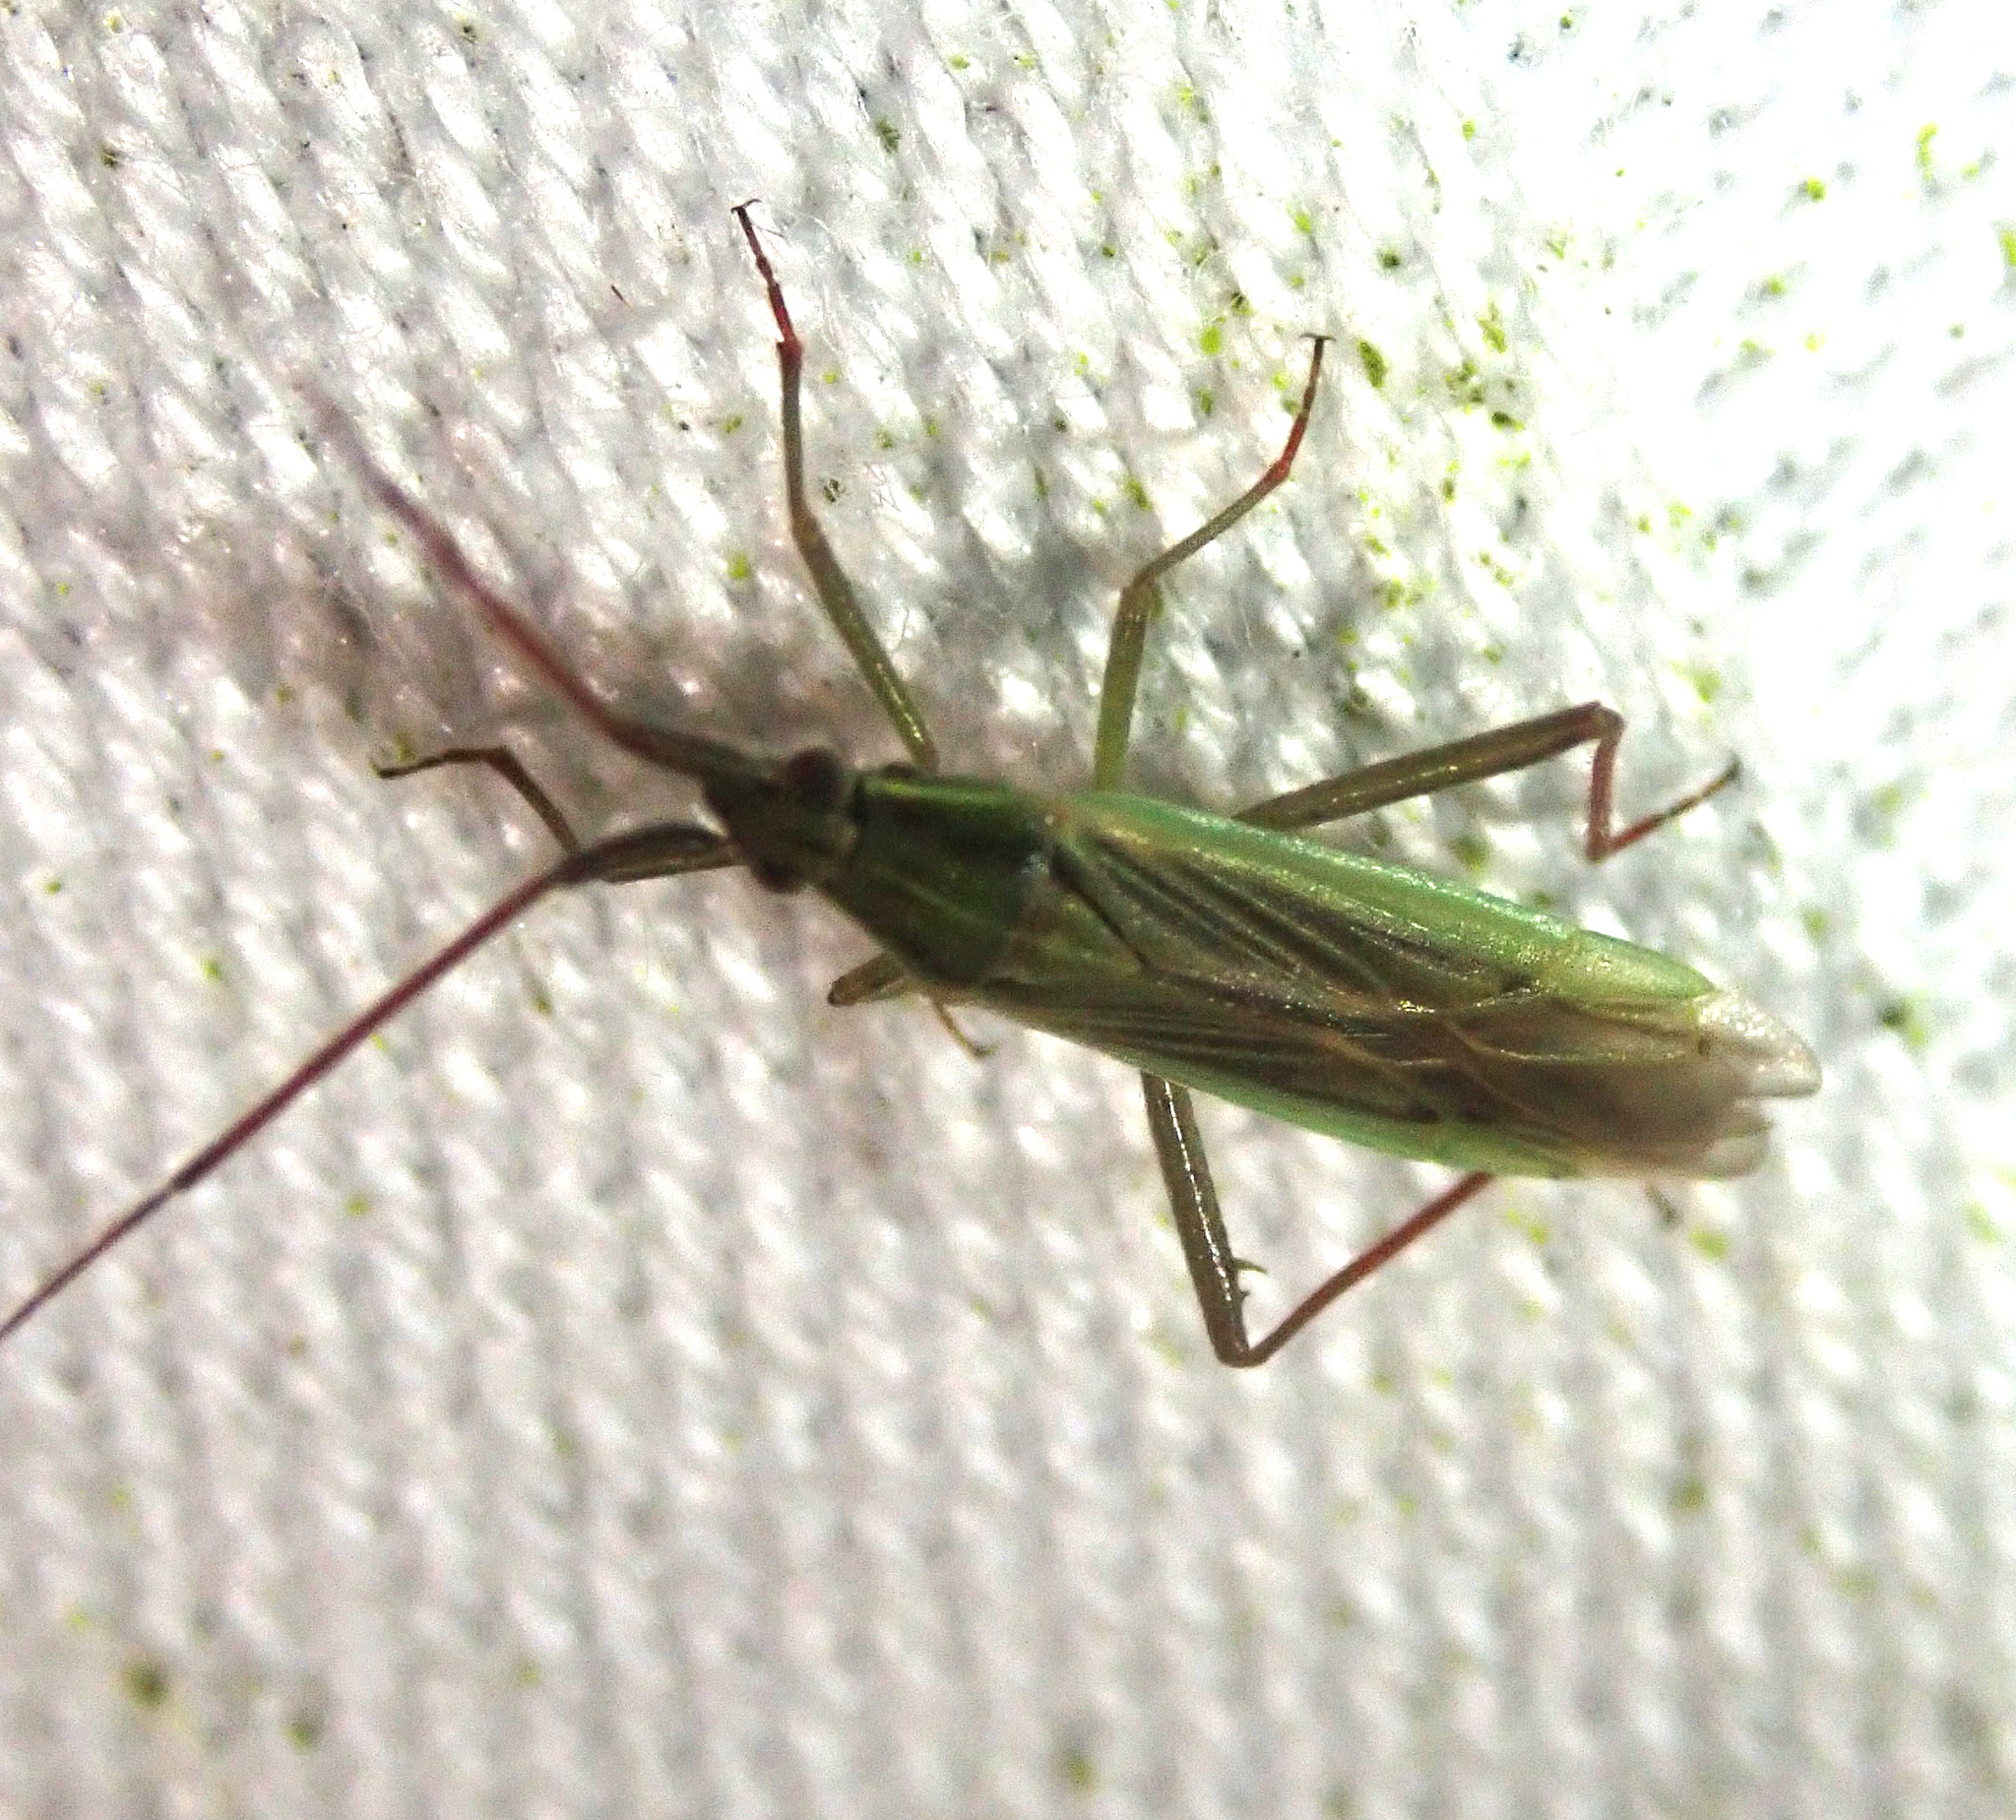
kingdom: Animalia
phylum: Arthropoda
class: Insecta
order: Hemiptera
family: Miridae
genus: Stenodema
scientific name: Stenodema calcarata
